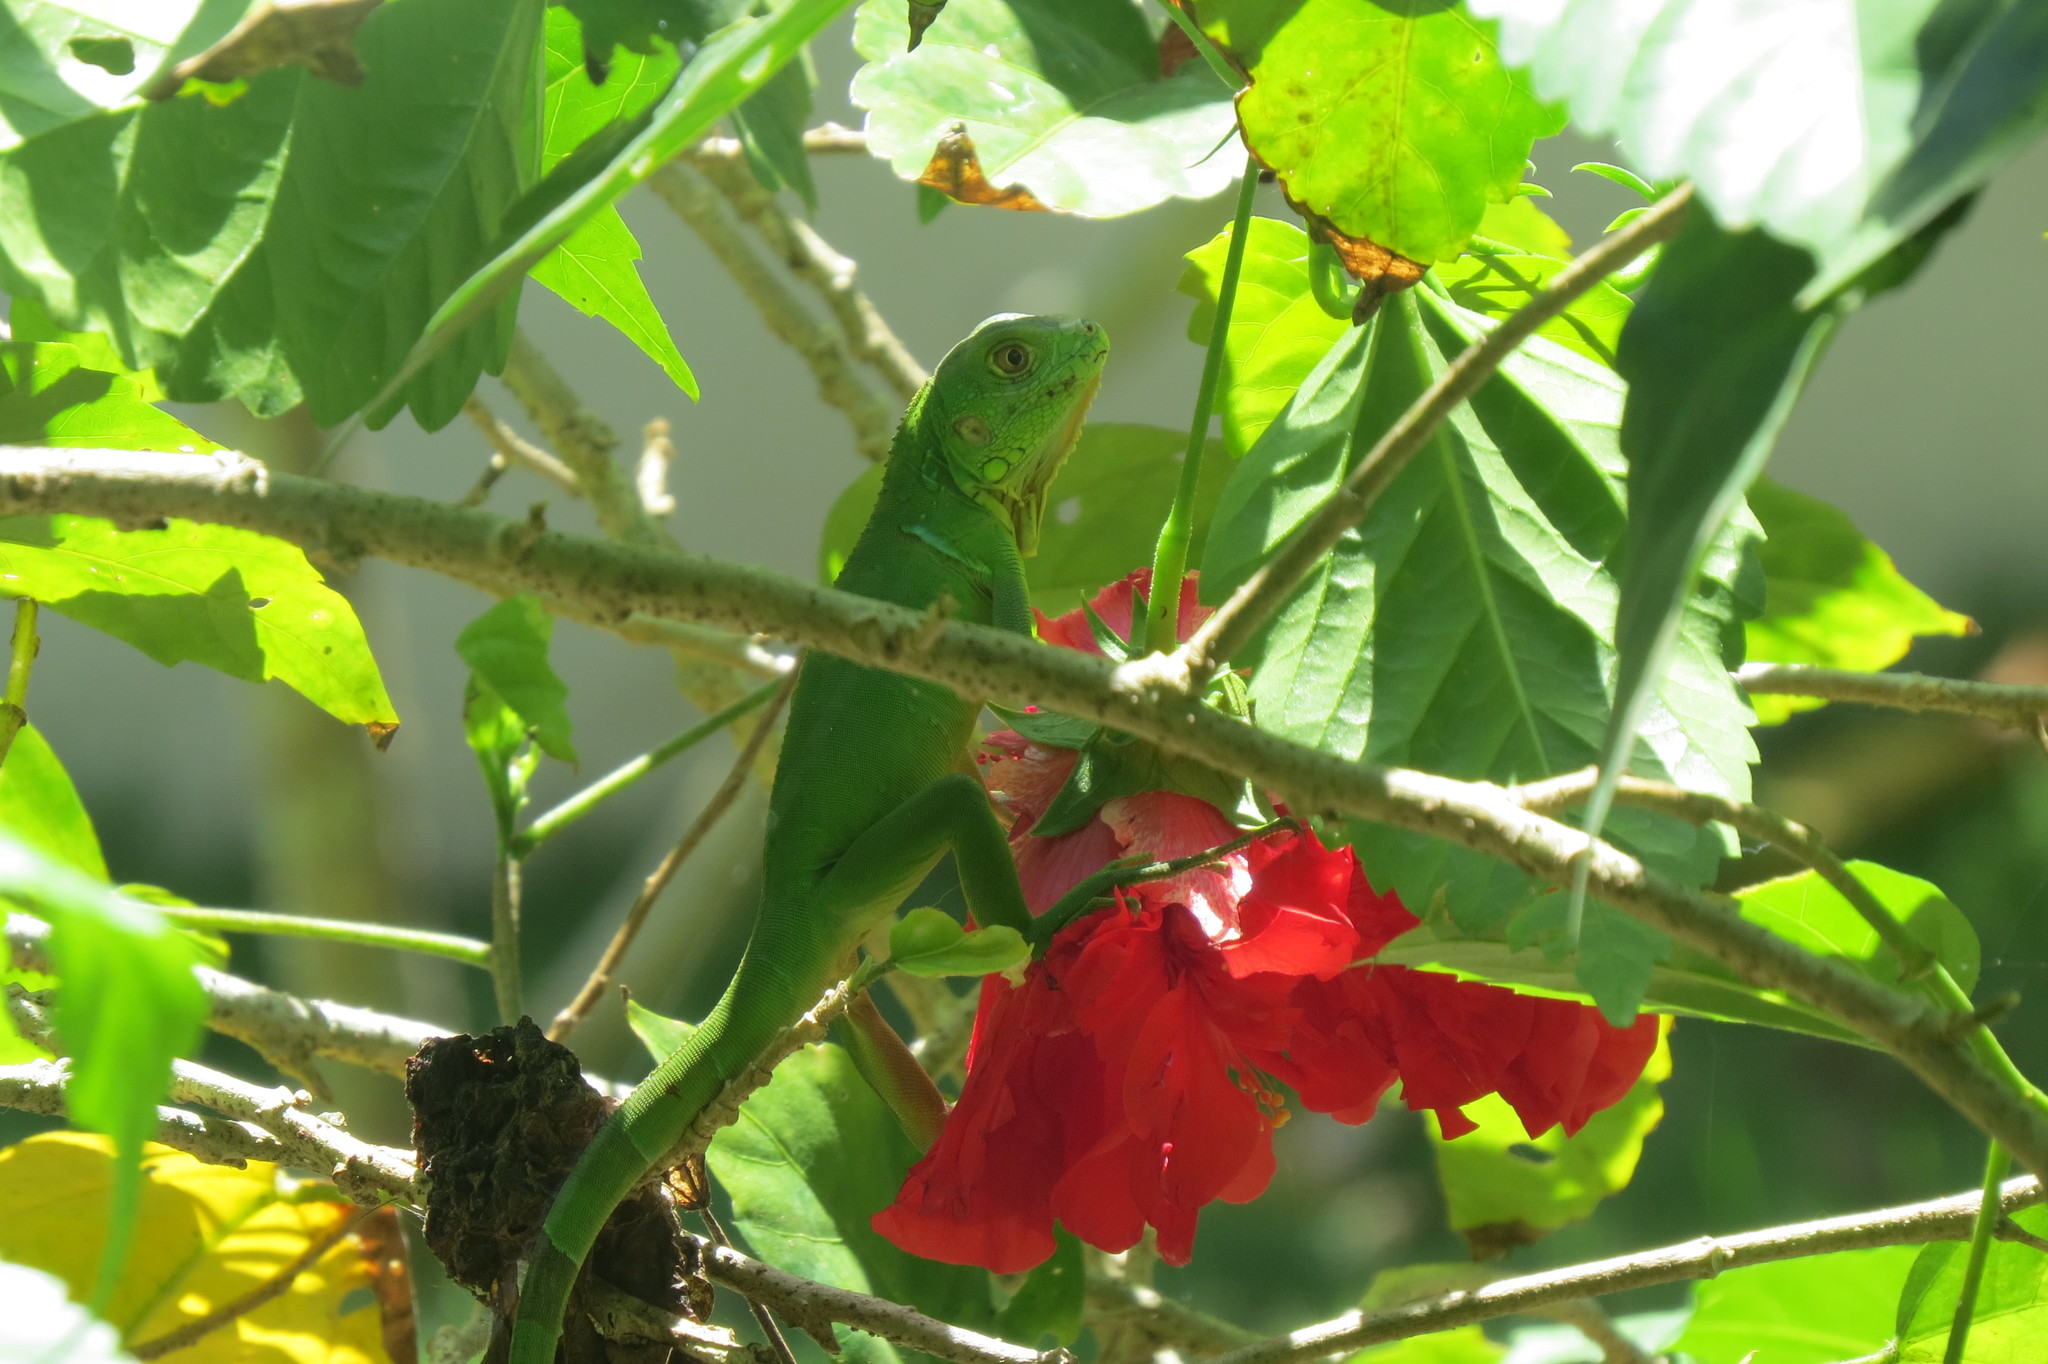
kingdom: Animalia
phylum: Chordata
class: Squamata
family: Iguanidae
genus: Iguana
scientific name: Iguana iguana
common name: Green iguana
